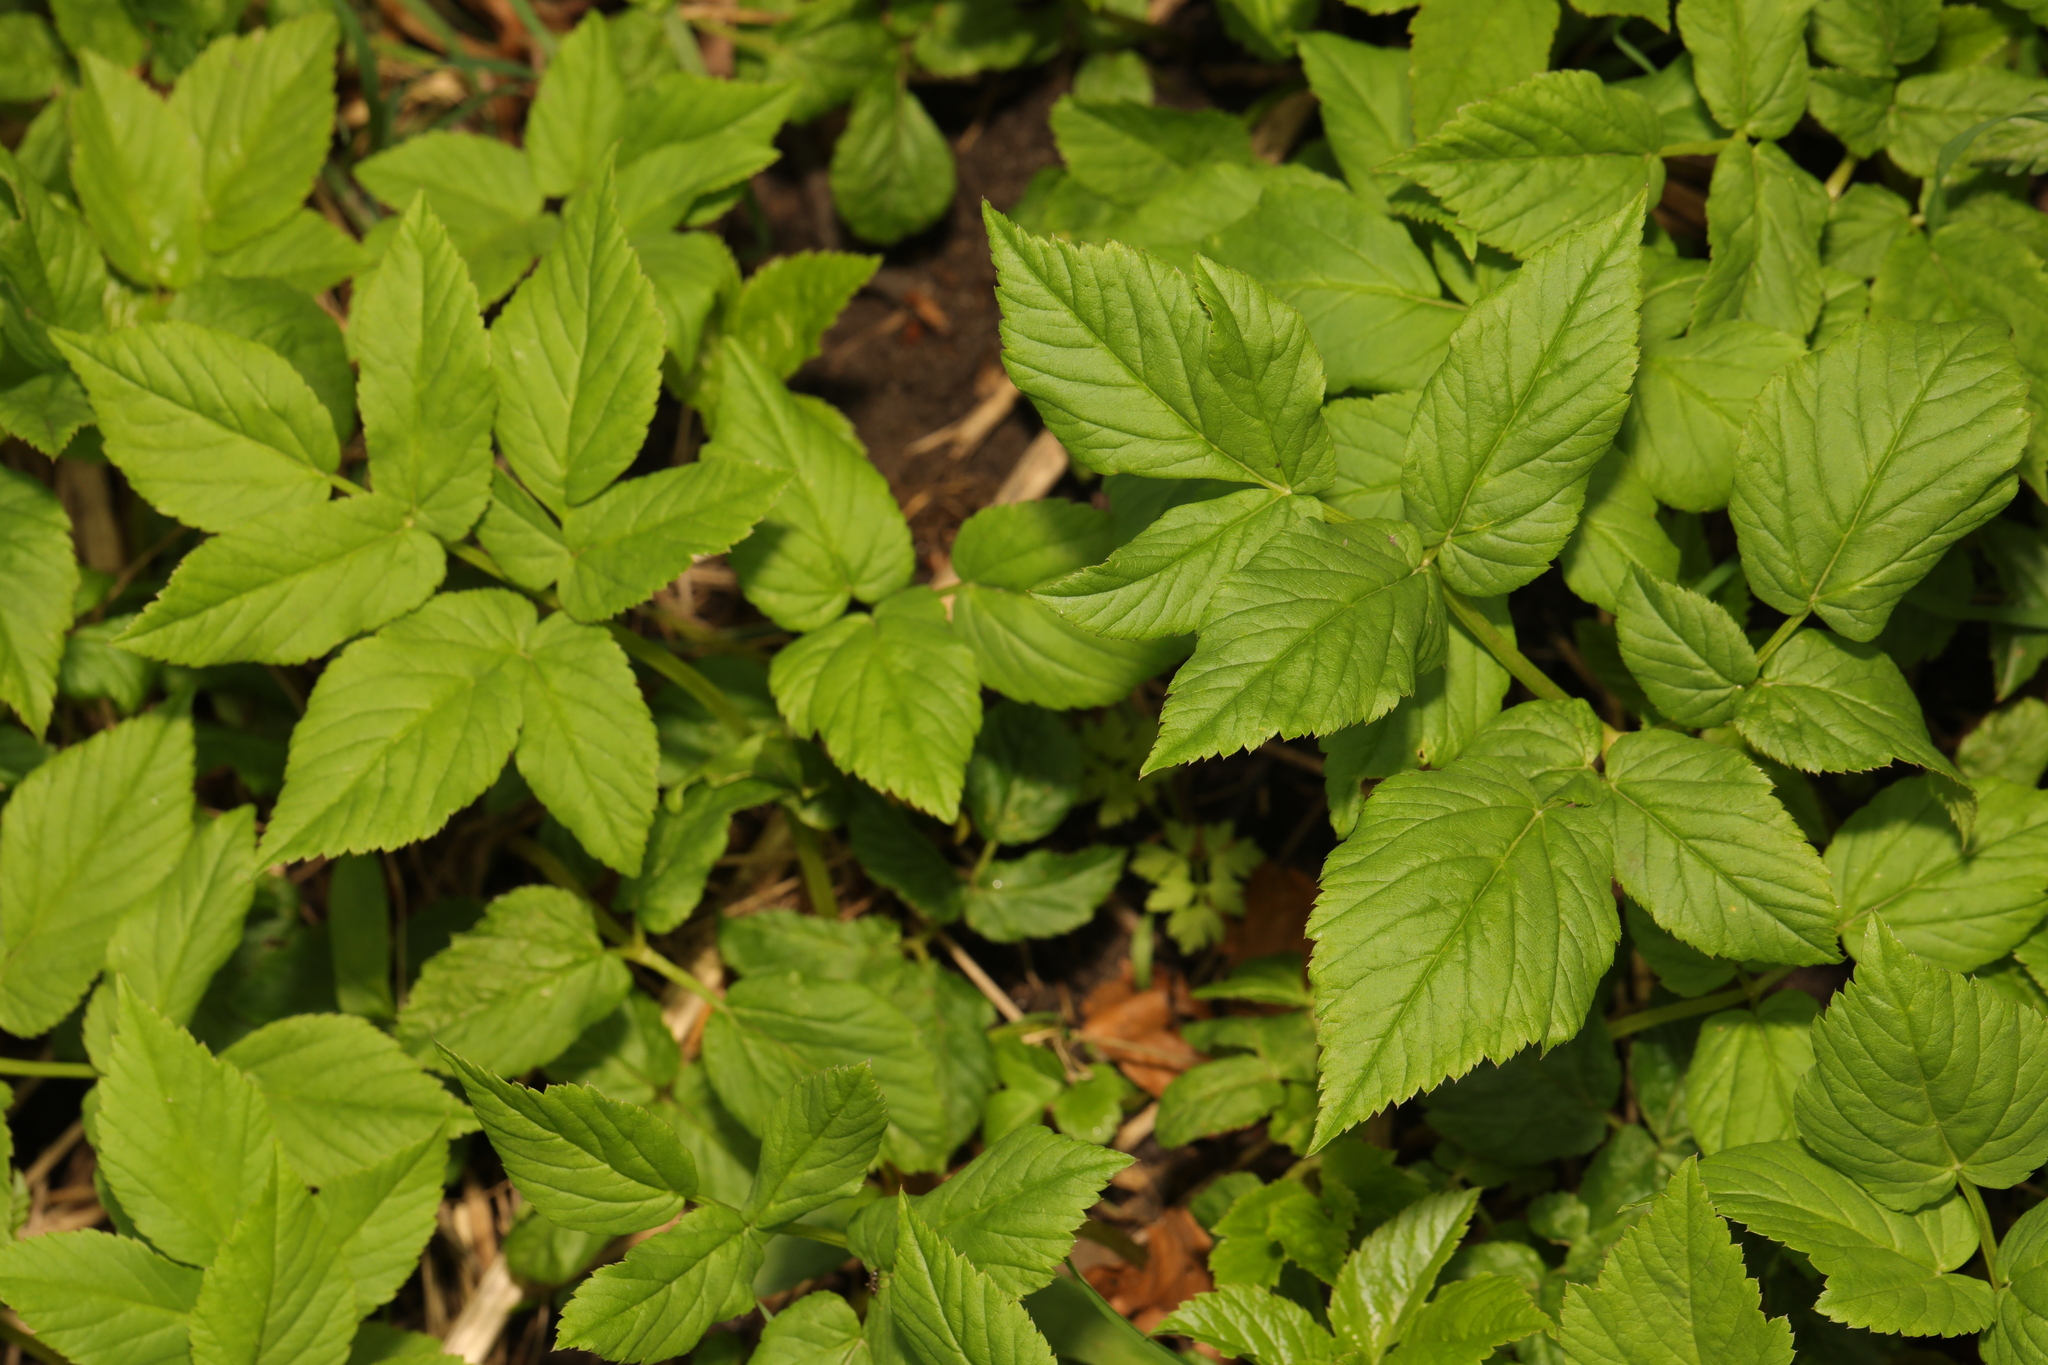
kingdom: Plantae
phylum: Tracheophyta
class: Magnoliopsida
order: Apiales
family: Apiaceae
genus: Aegopodium
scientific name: Aegopodium podagraria
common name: Ground-elder
